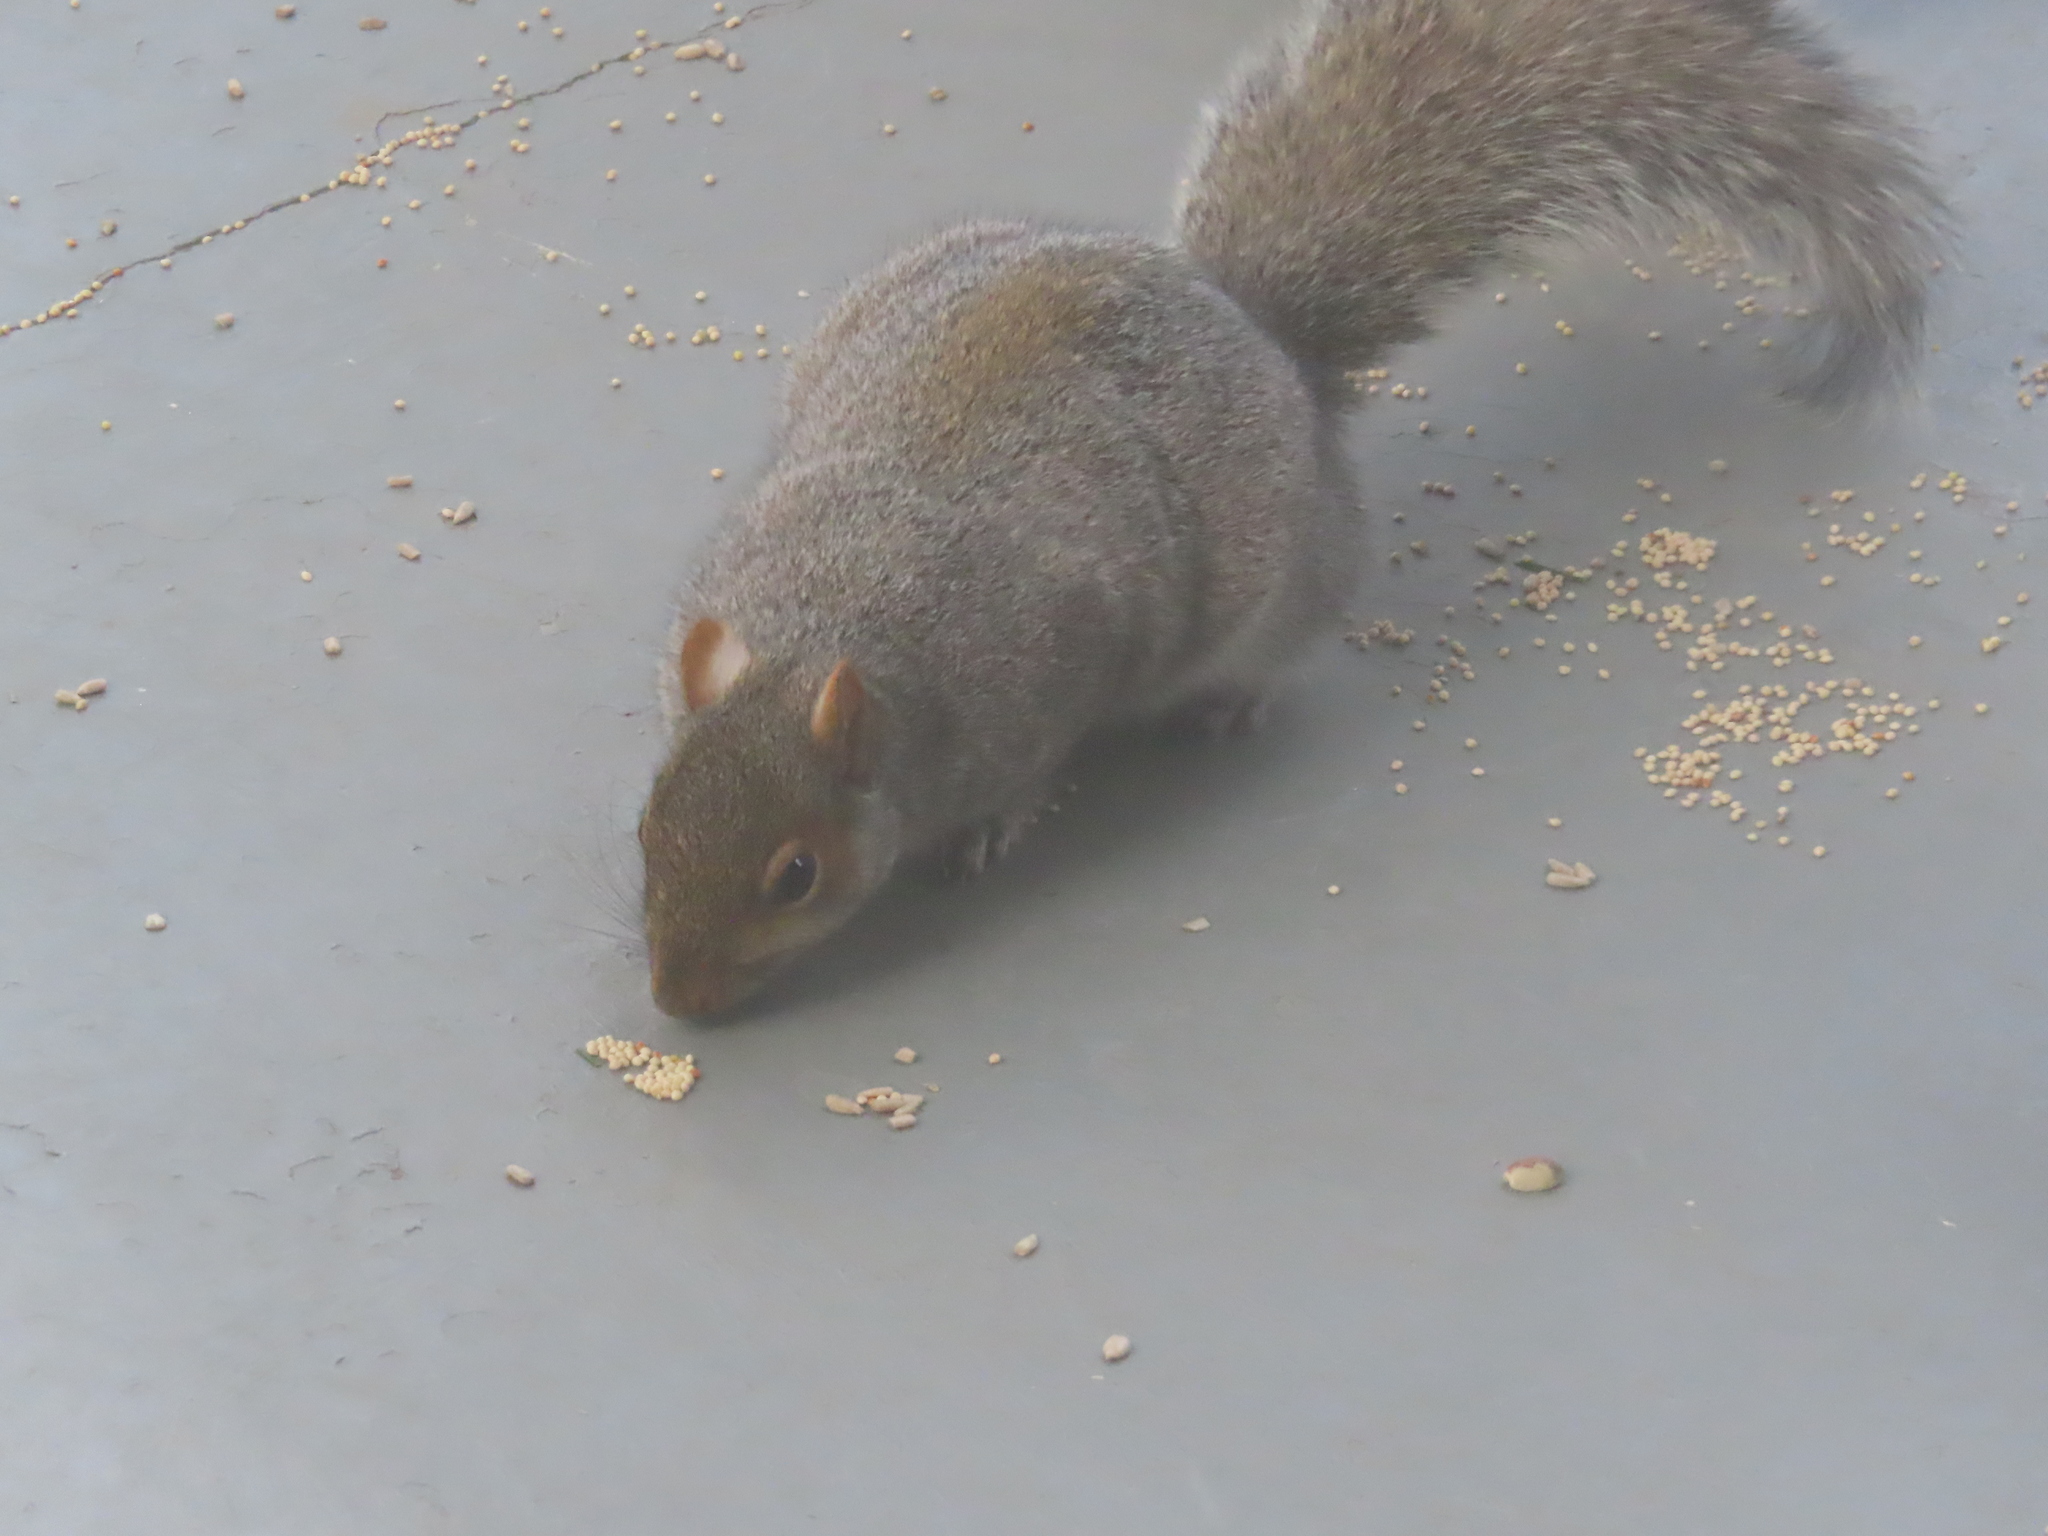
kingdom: Animalia
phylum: Chordata
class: Mammalia
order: Rodentia
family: Sciuridae
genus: Sciurus
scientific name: Sciurus carolinensis
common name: Eastern gray squirrel
